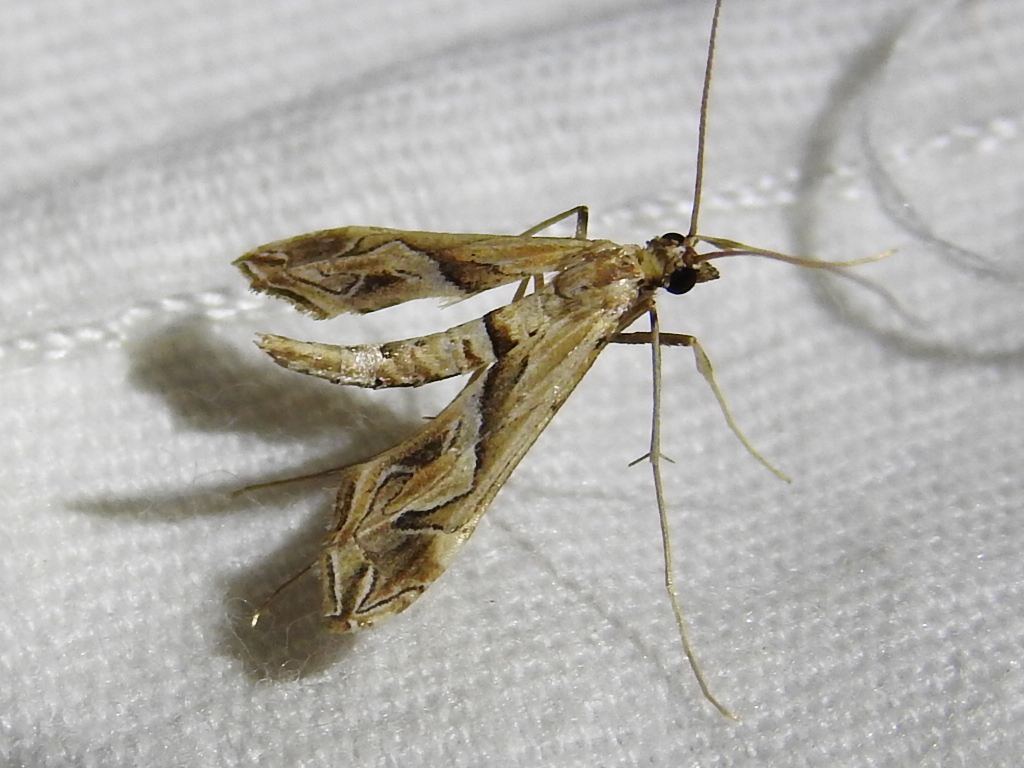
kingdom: Animalia
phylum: Arthropoda
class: Insecta
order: Lepidoptera
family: Crambidae
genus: Lineodes
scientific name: Lineodes fontella
